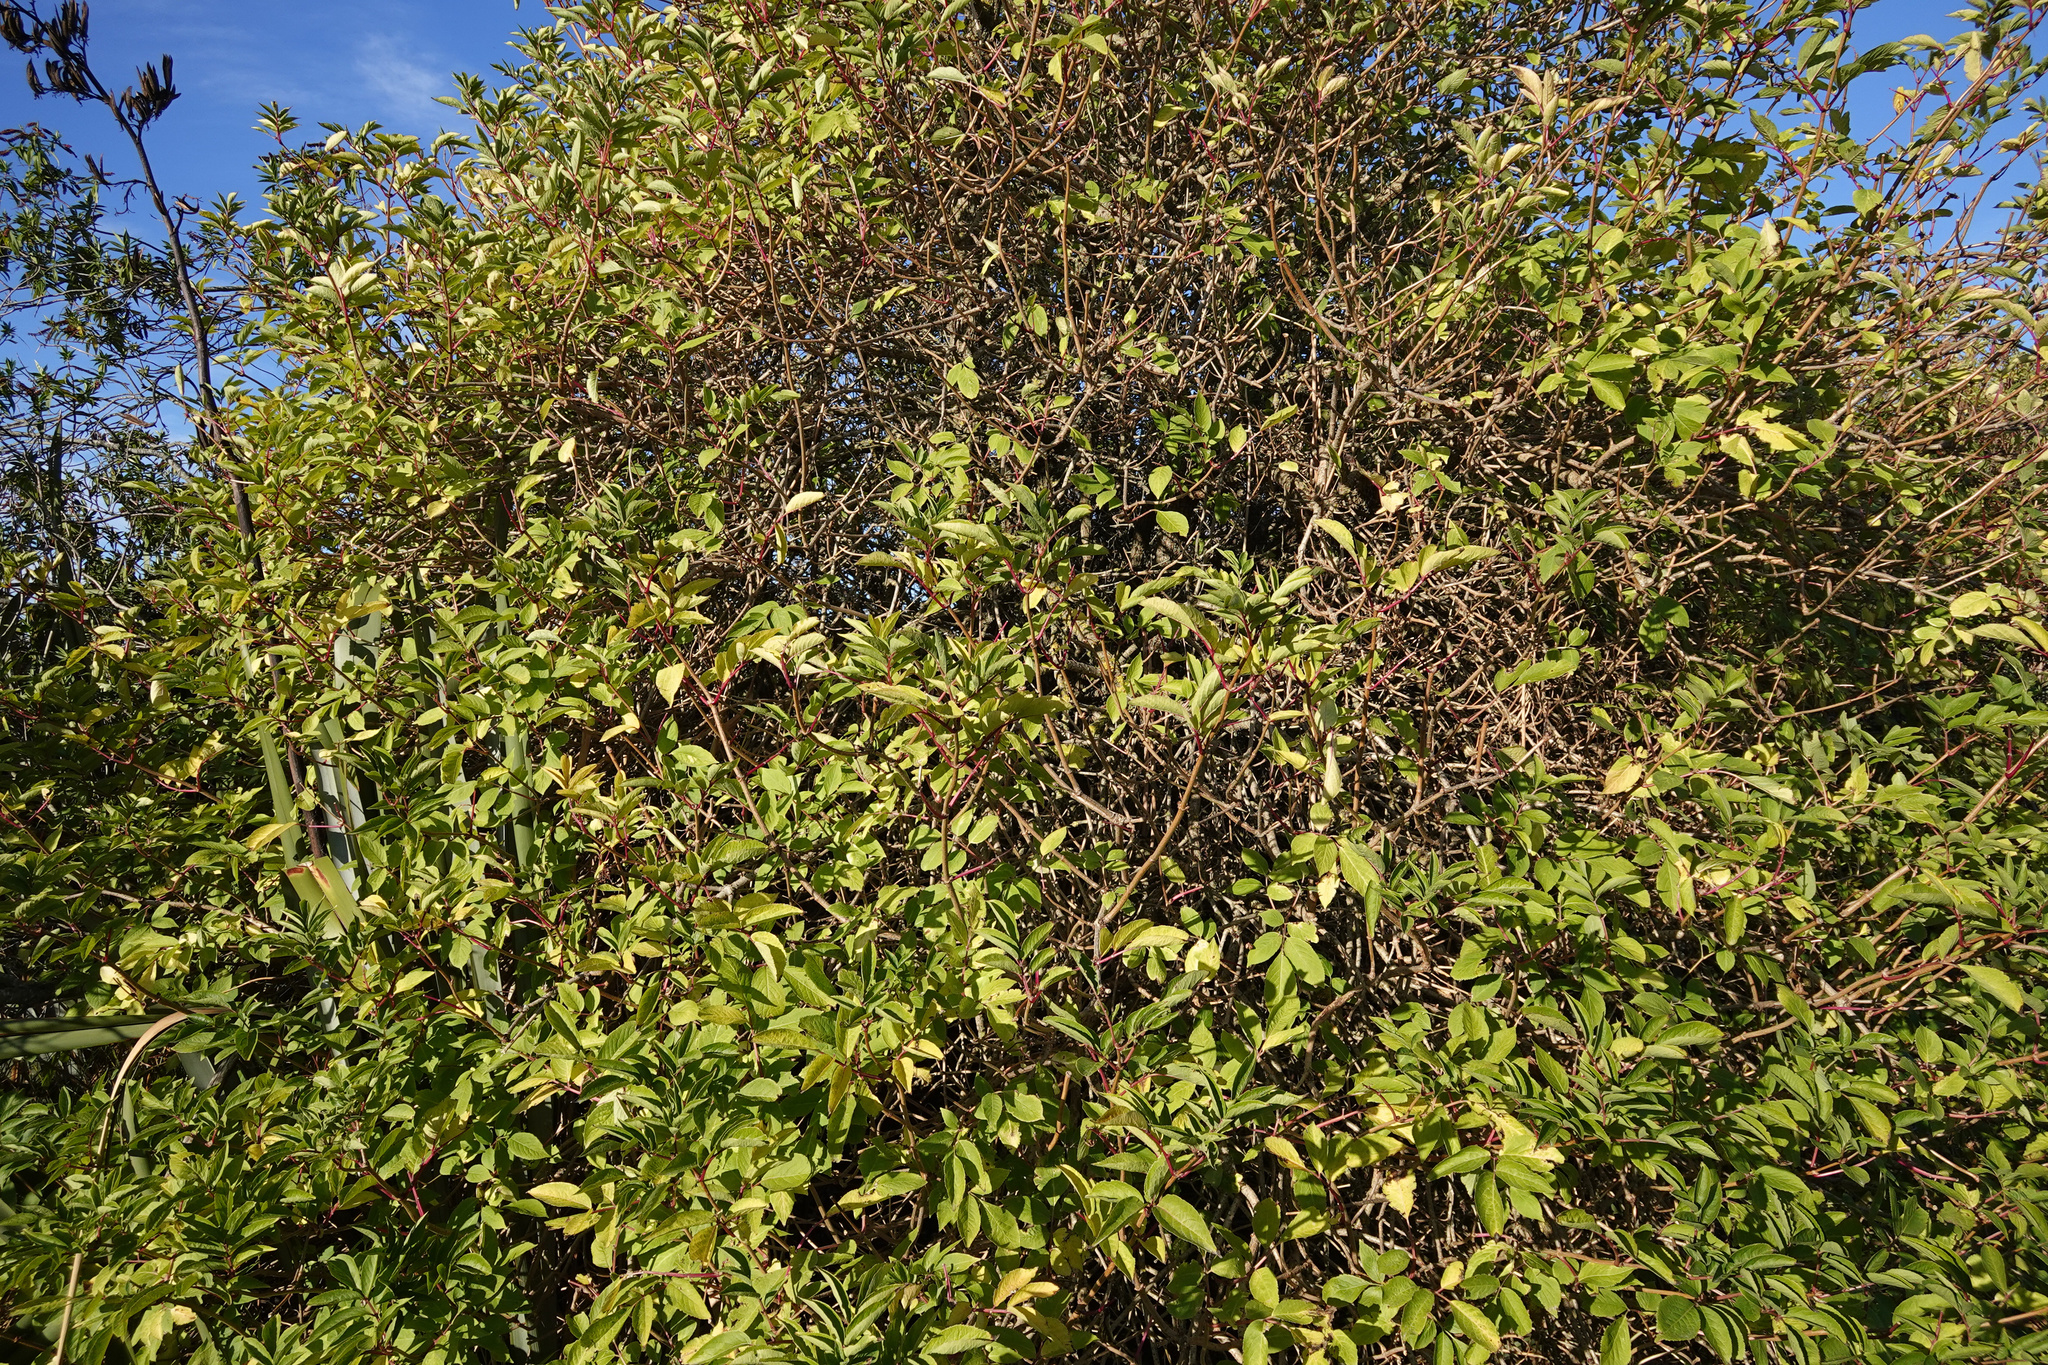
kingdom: Plantae
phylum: Tracheophyta
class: Magnoliopsida
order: Dipsacales
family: Viburnaceae
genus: Sambucus
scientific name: Sambucus nigra
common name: Elder
